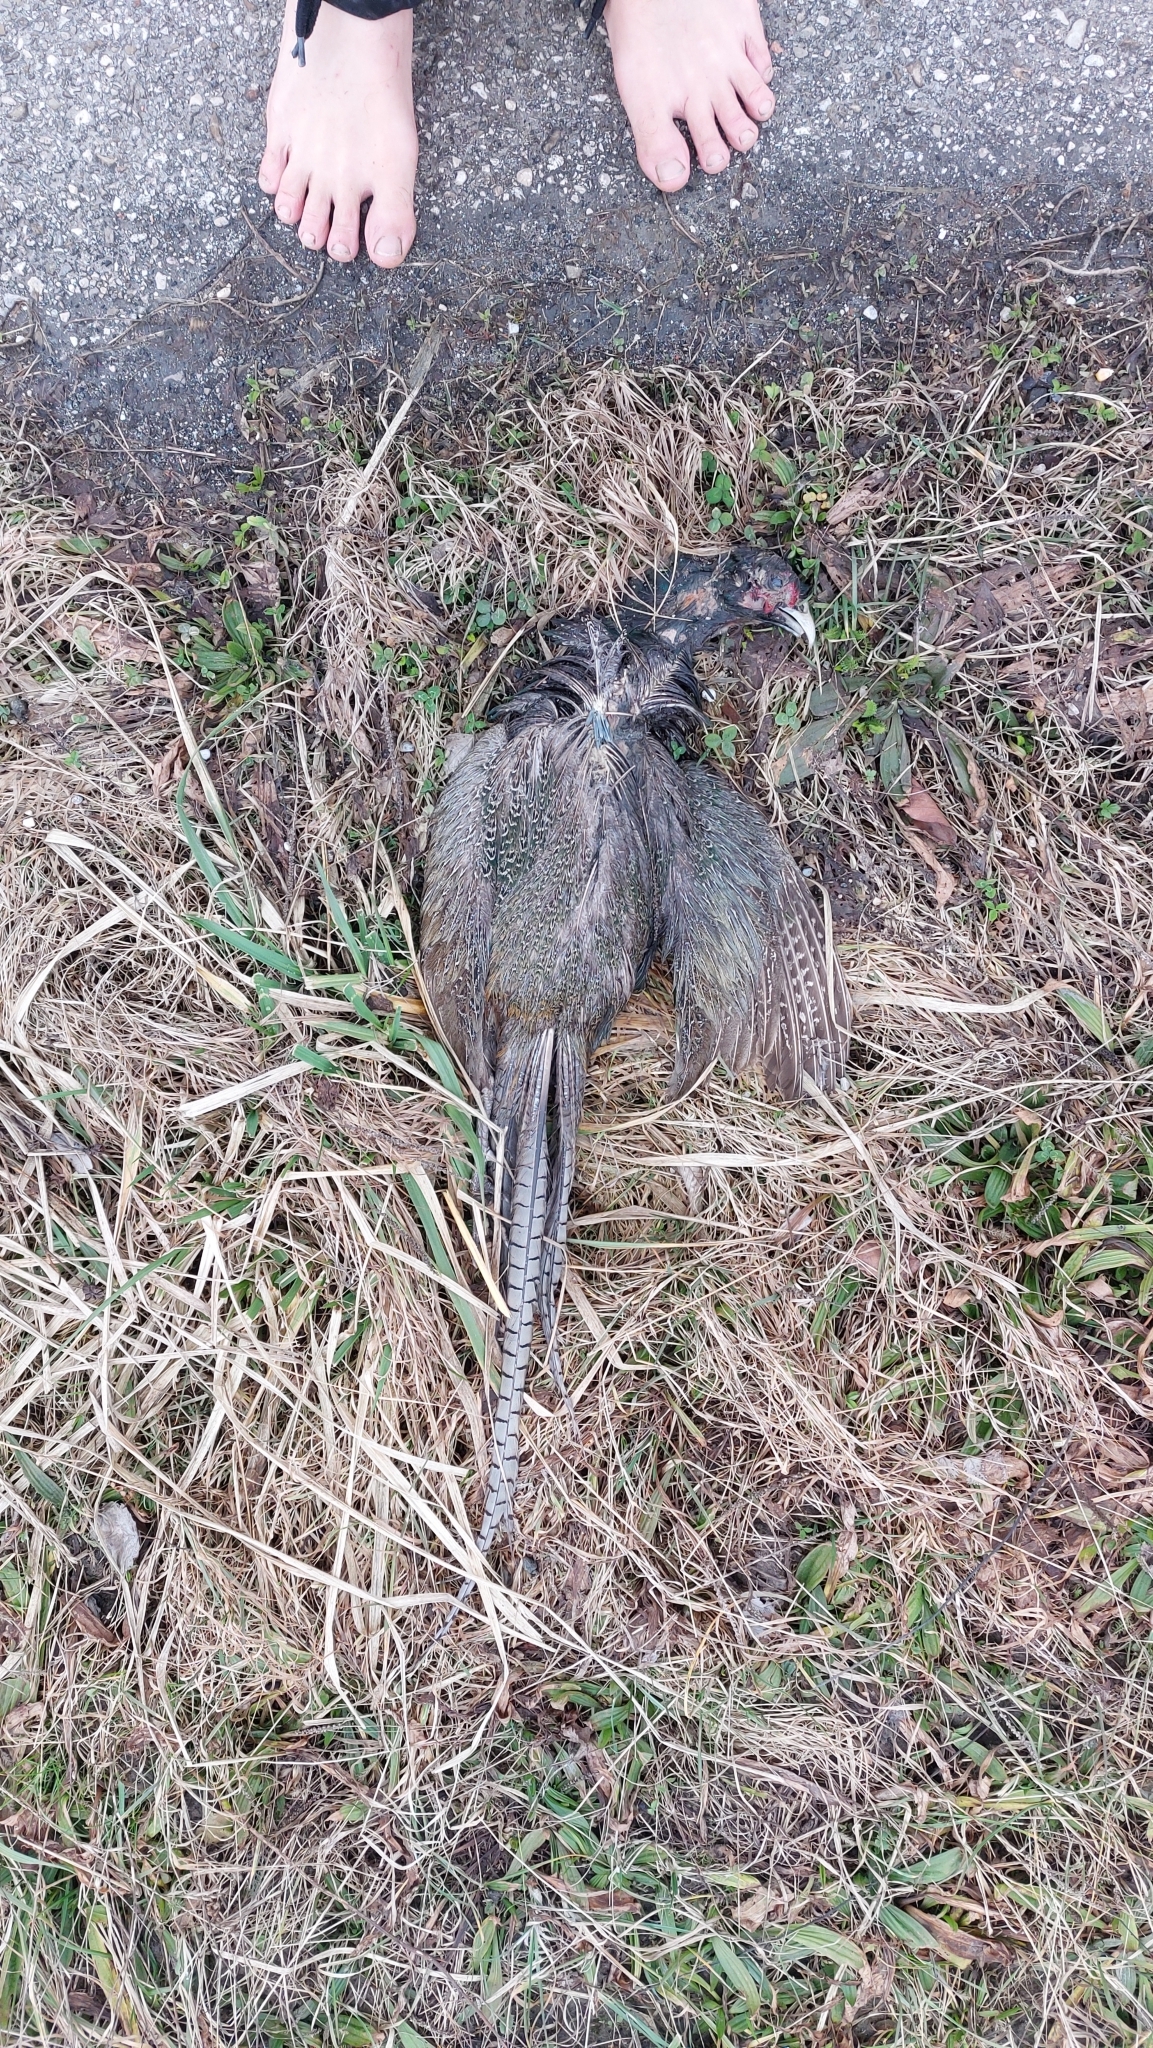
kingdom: Animalia
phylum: Chordata
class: Aves
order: Galliformes
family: Phasianidae
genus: Phasianus
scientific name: Phasianus colchicus
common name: Common pheasant
